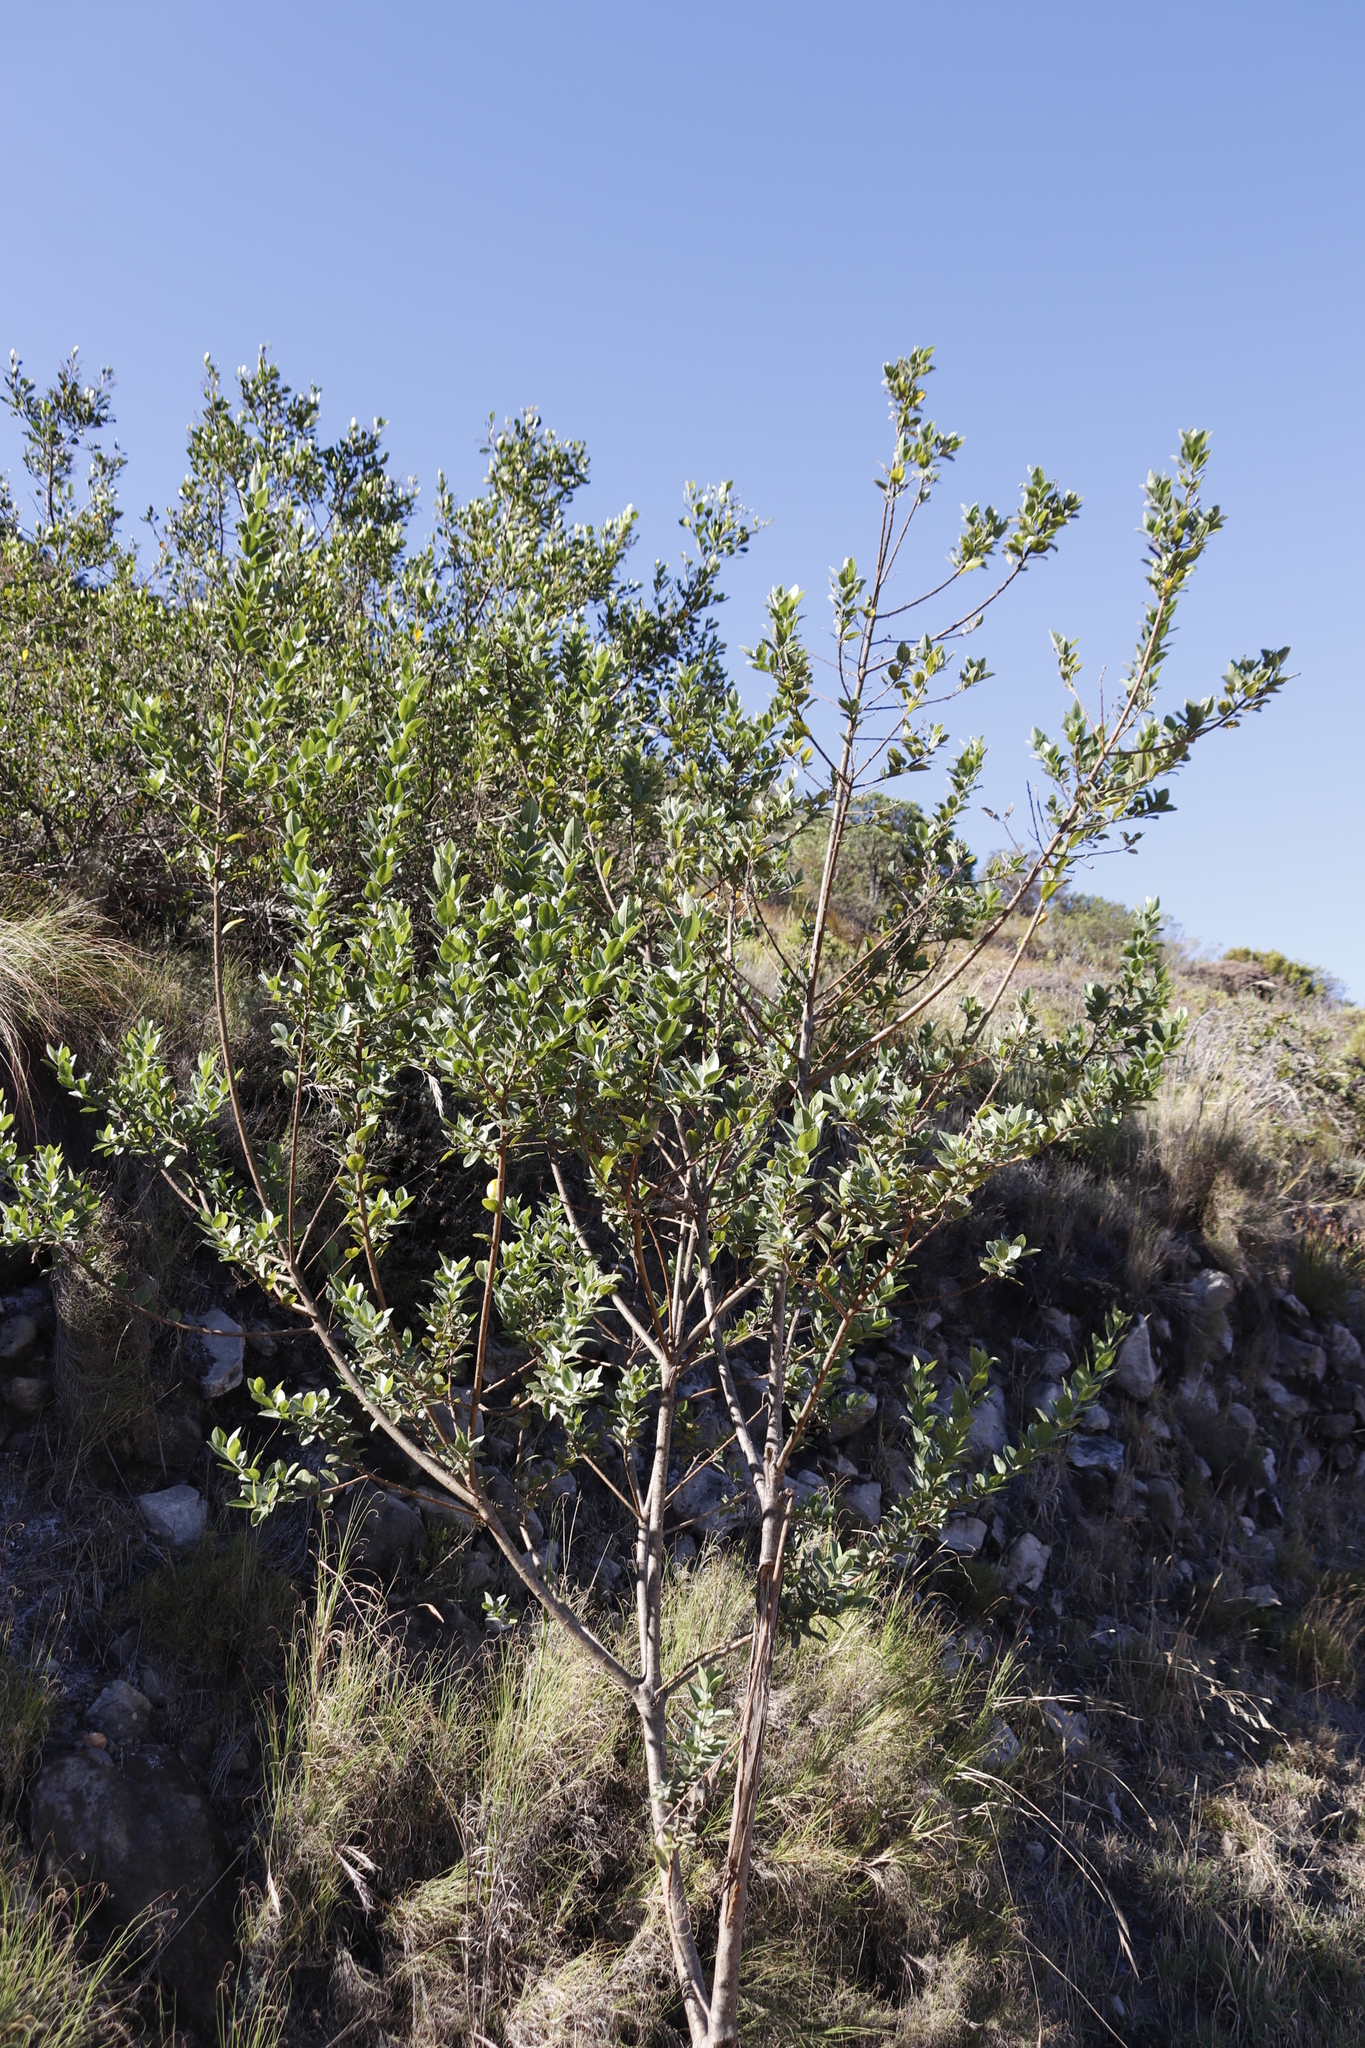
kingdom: Plantae
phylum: Tracheophyta
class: Magnoliopsida
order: Fabales
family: Fabaceae
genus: Podalyria
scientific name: Podalyria calyptrata
